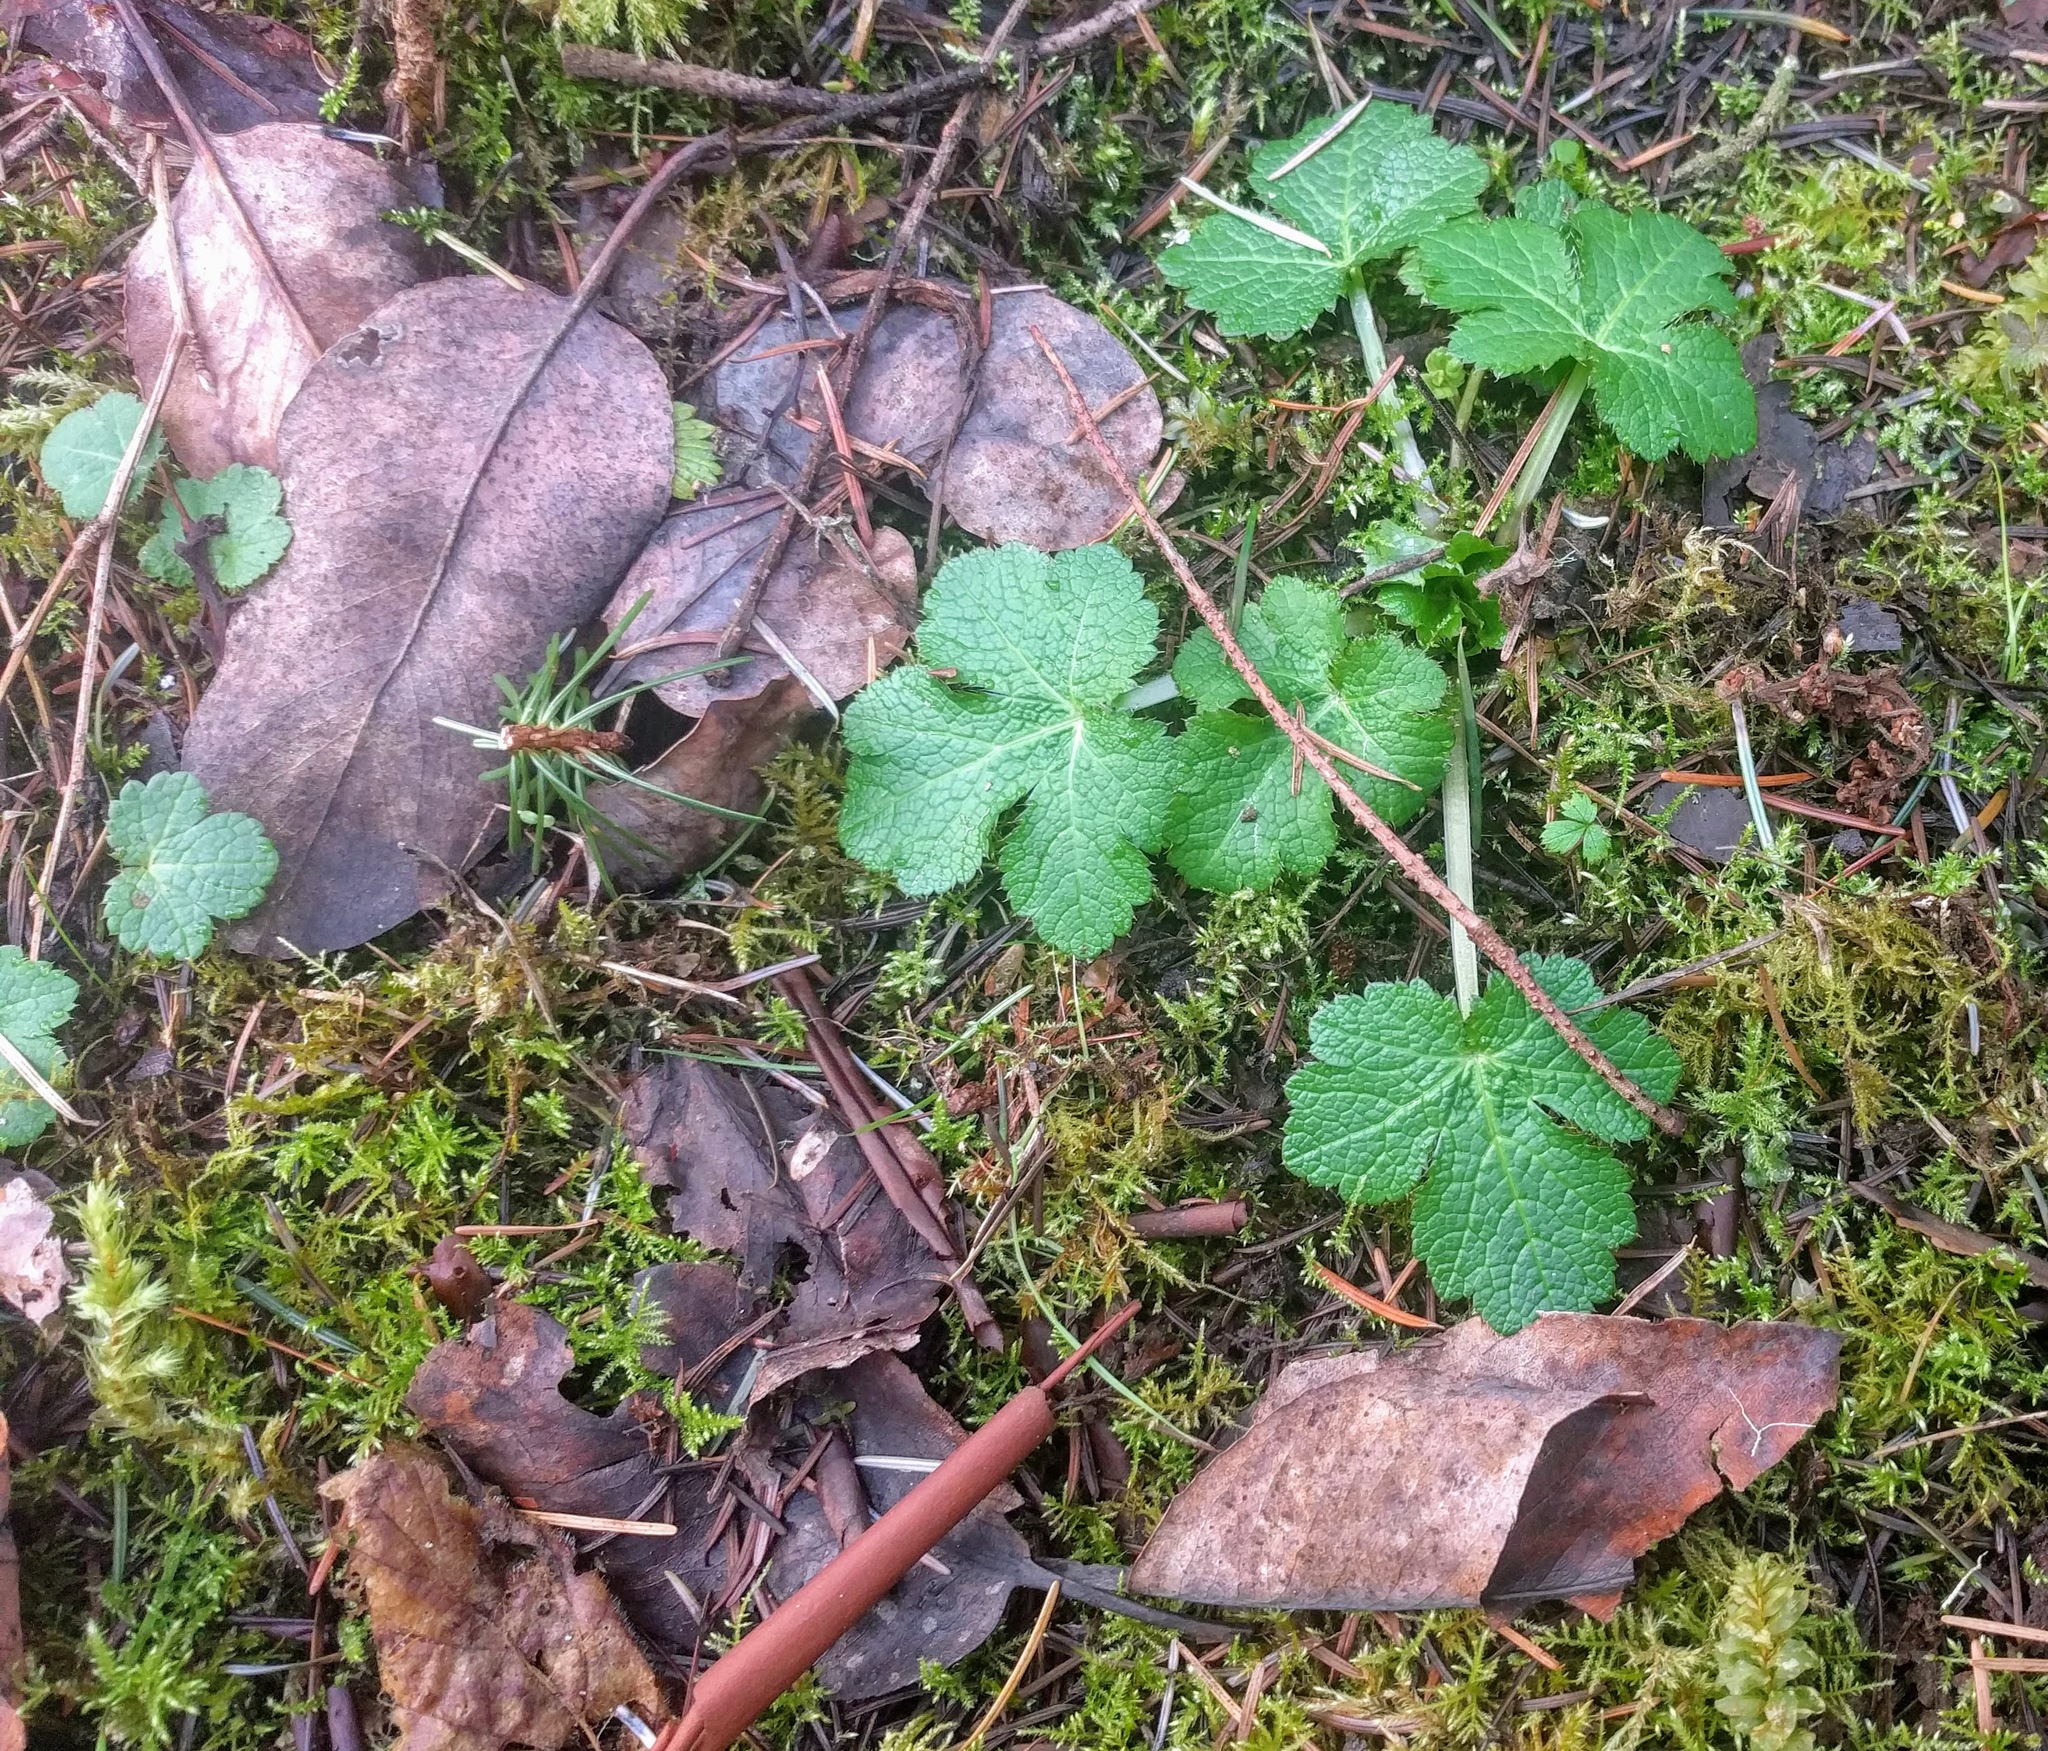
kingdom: Plantae
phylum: Tracheophyta
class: Magnoliopsida
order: Apiales
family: Apiaceae
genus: Sanicula
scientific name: Sanicula crassicaulis
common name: Western snakeroot
